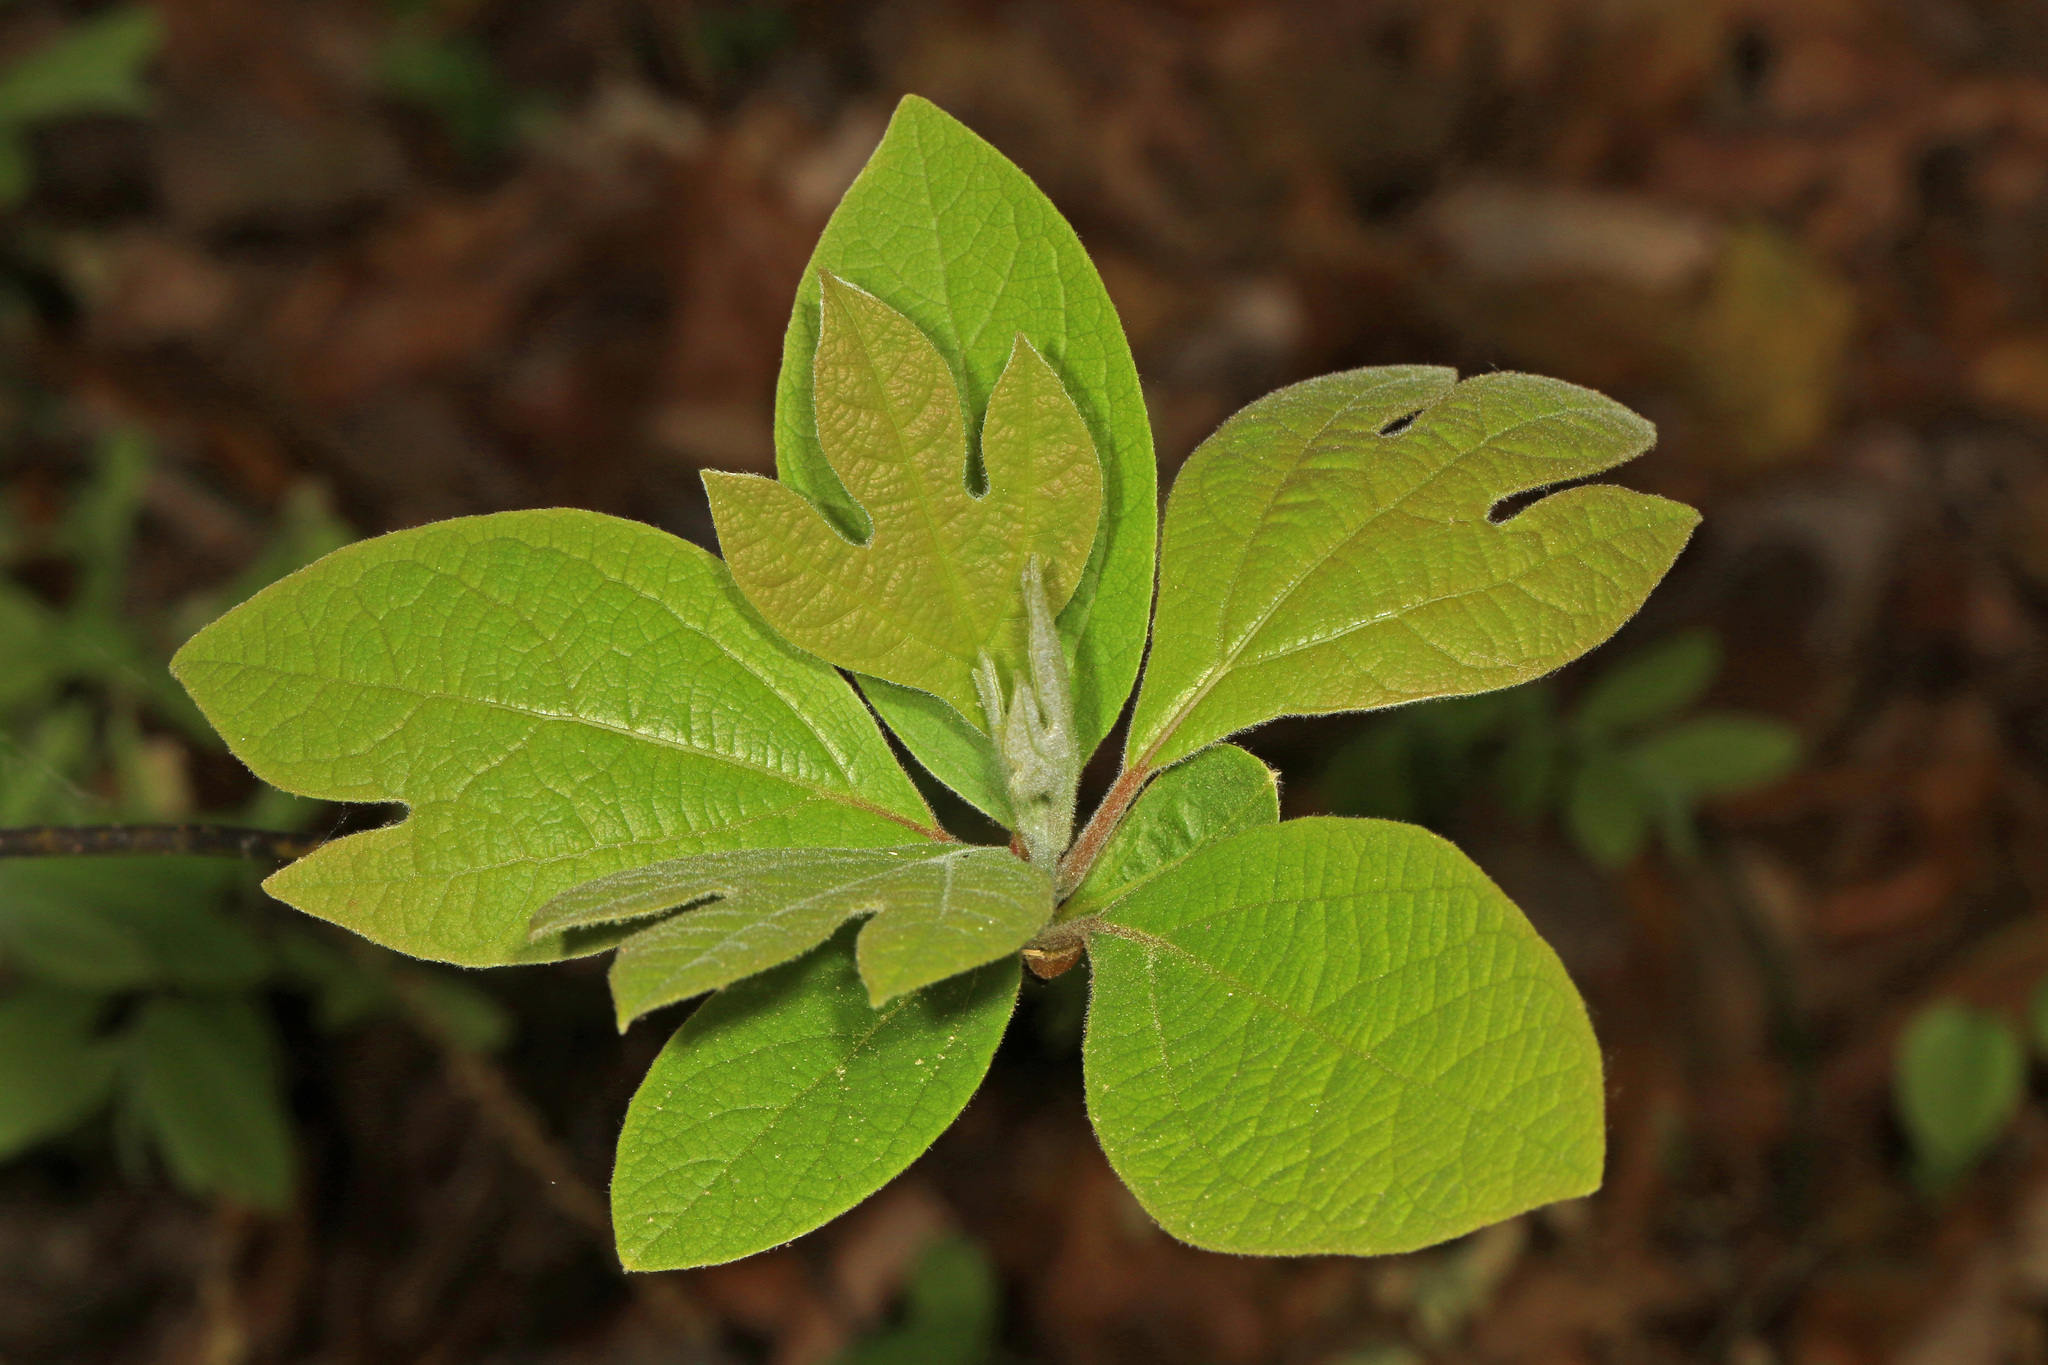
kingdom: Plantae
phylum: Tracheophyta
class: Magnoliopsida
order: Laurales
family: Lauraceae
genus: Sassafras
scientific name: Sassafras albidum
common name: Sassafras
